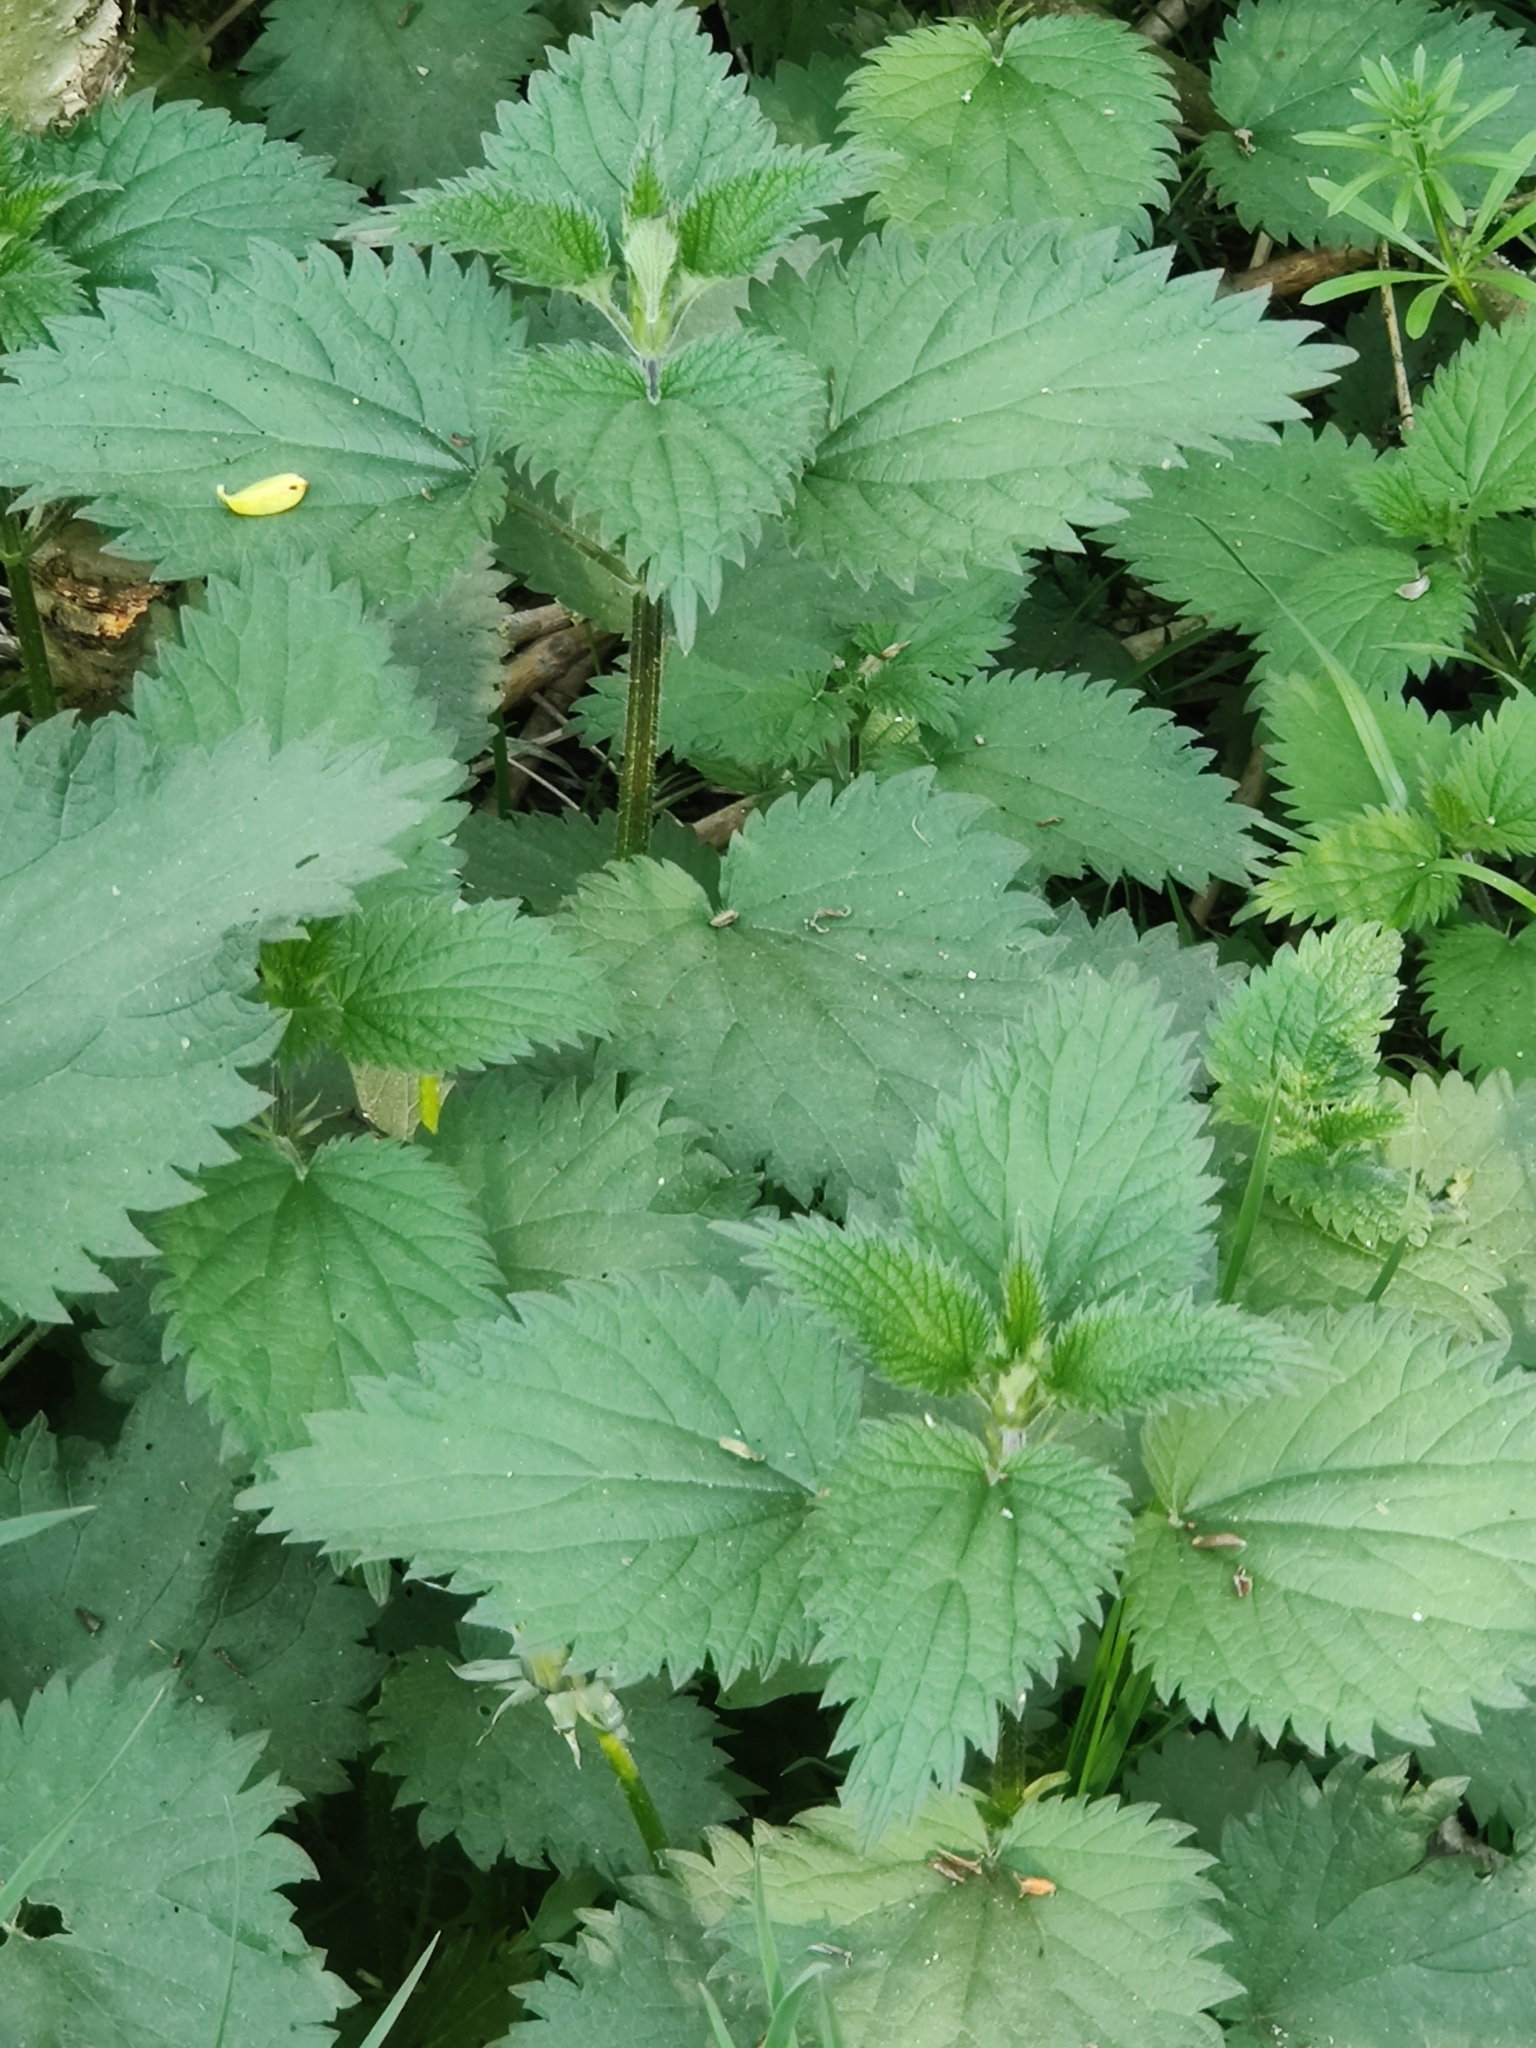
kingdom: Plantae
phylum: Tracheophyta
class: Magnoliopsida
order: Rosales
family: Urticaceae
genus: Urtica
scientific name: Urtica dioica
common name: Common nettle
